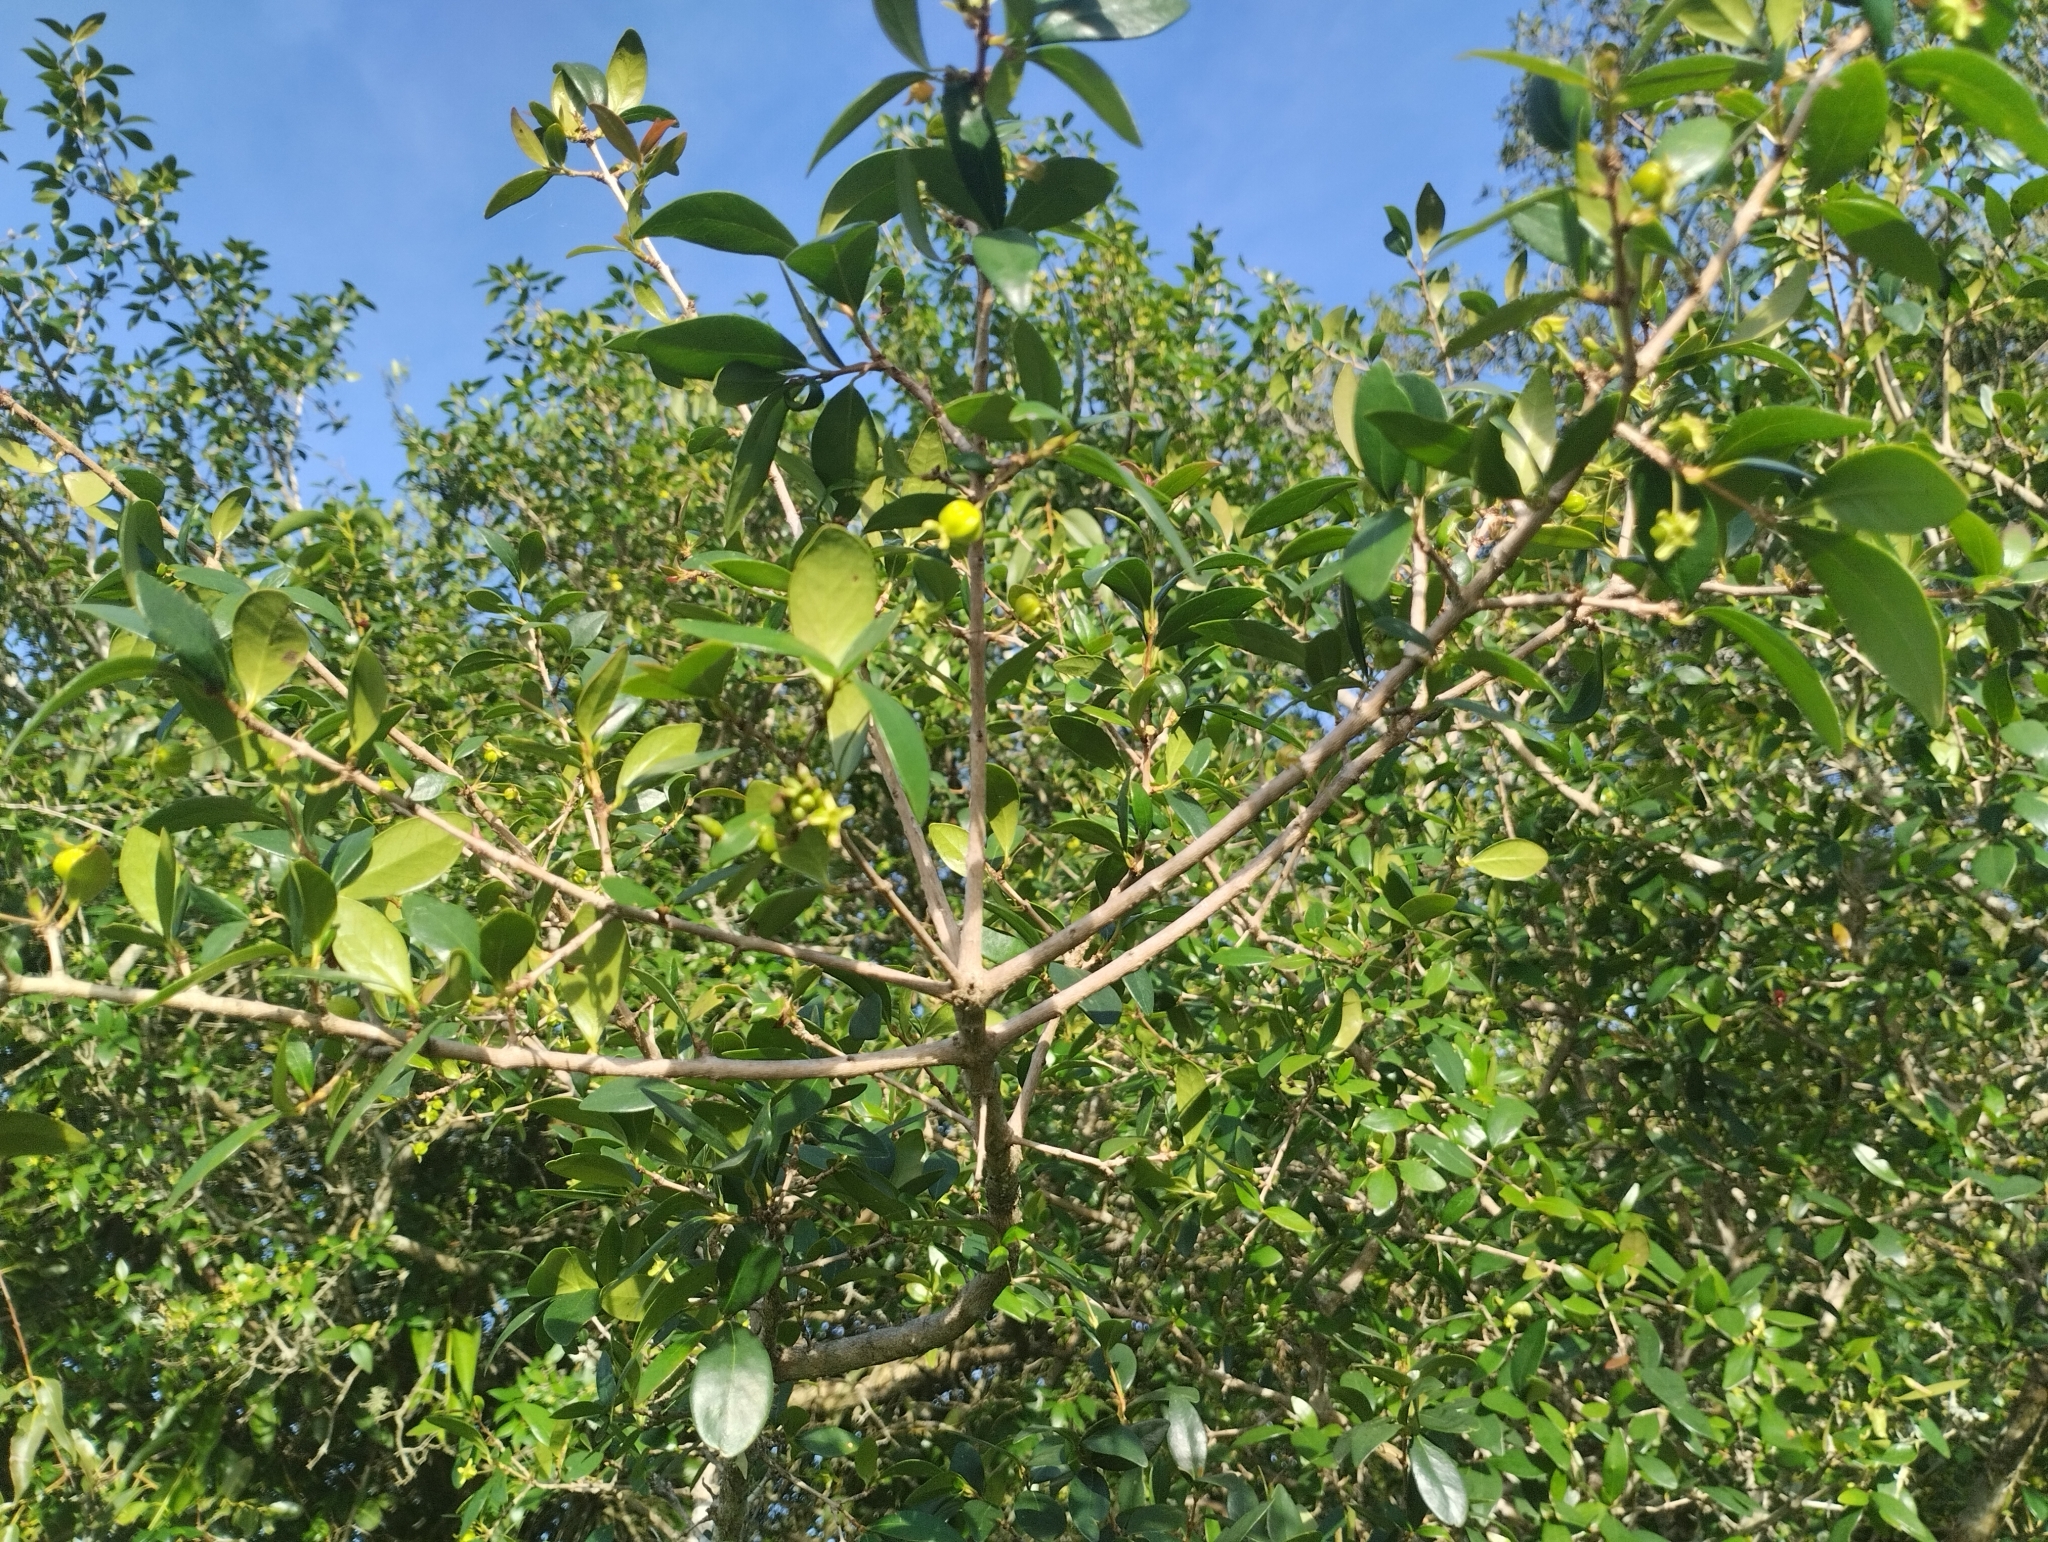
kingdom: Plantae
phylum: Tracheophyta
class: Magnoliopsida
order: Myrtales
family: Myrtaceae
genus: Eugenia
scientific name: Eugenia uniflora
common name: Surinam cherry
